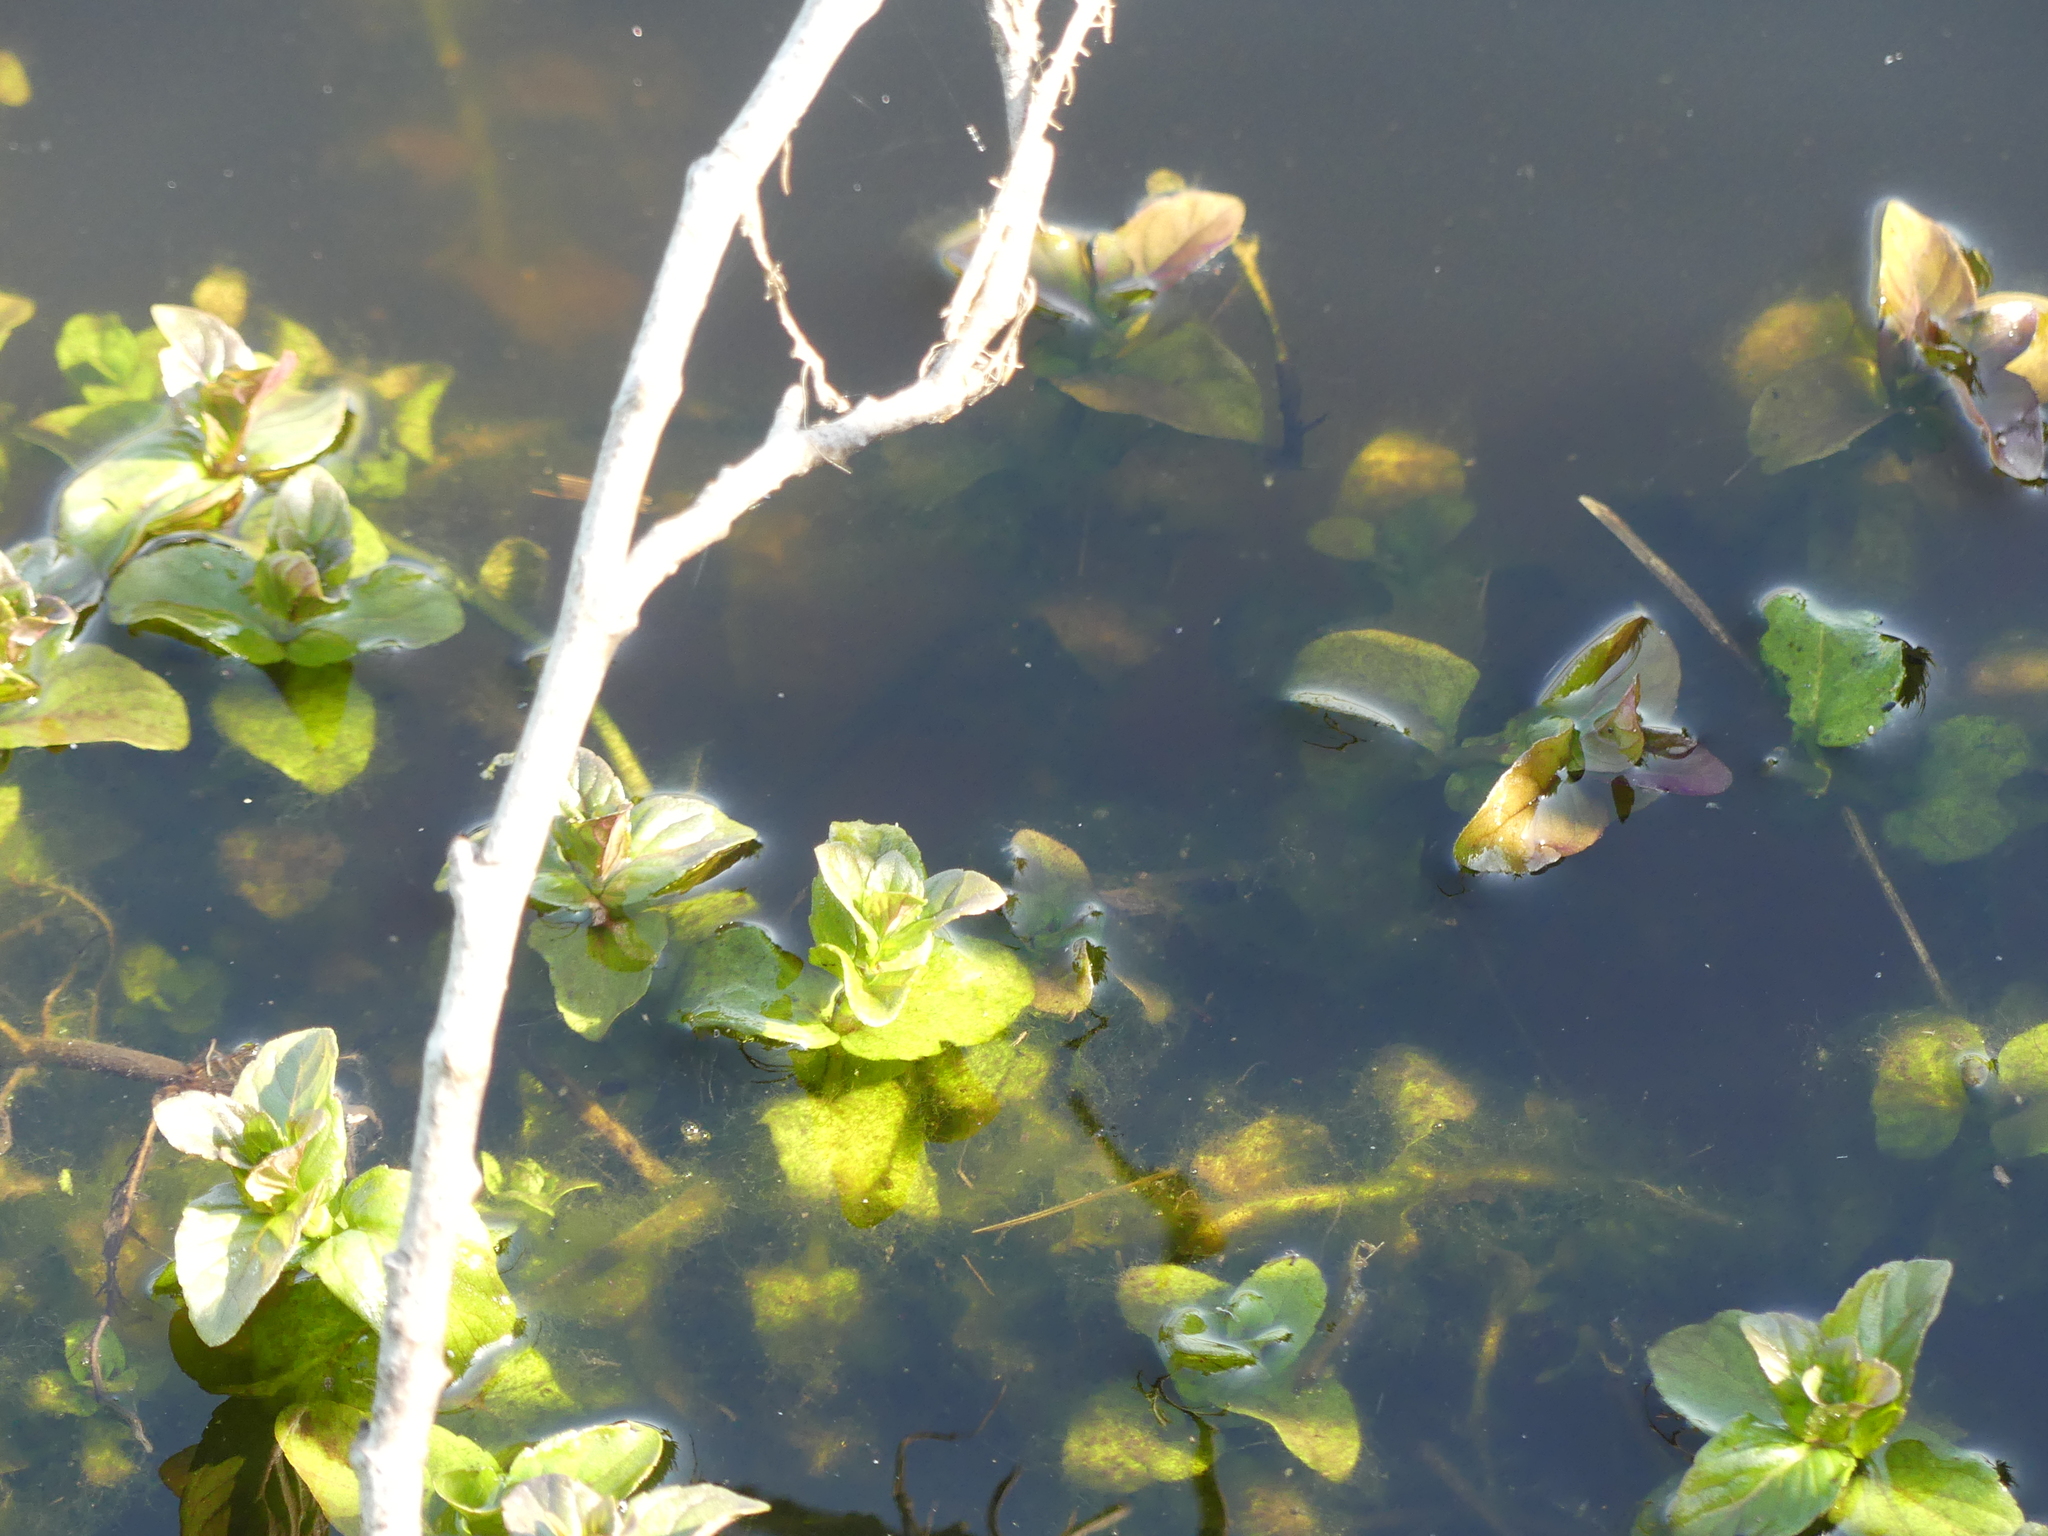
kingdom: Plantae
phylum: Tracheophyta
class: Magnoliopsida
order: Lamiales
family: Lamiaceae
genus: Mentha
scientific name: Mentha aquatica
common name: Water mint
